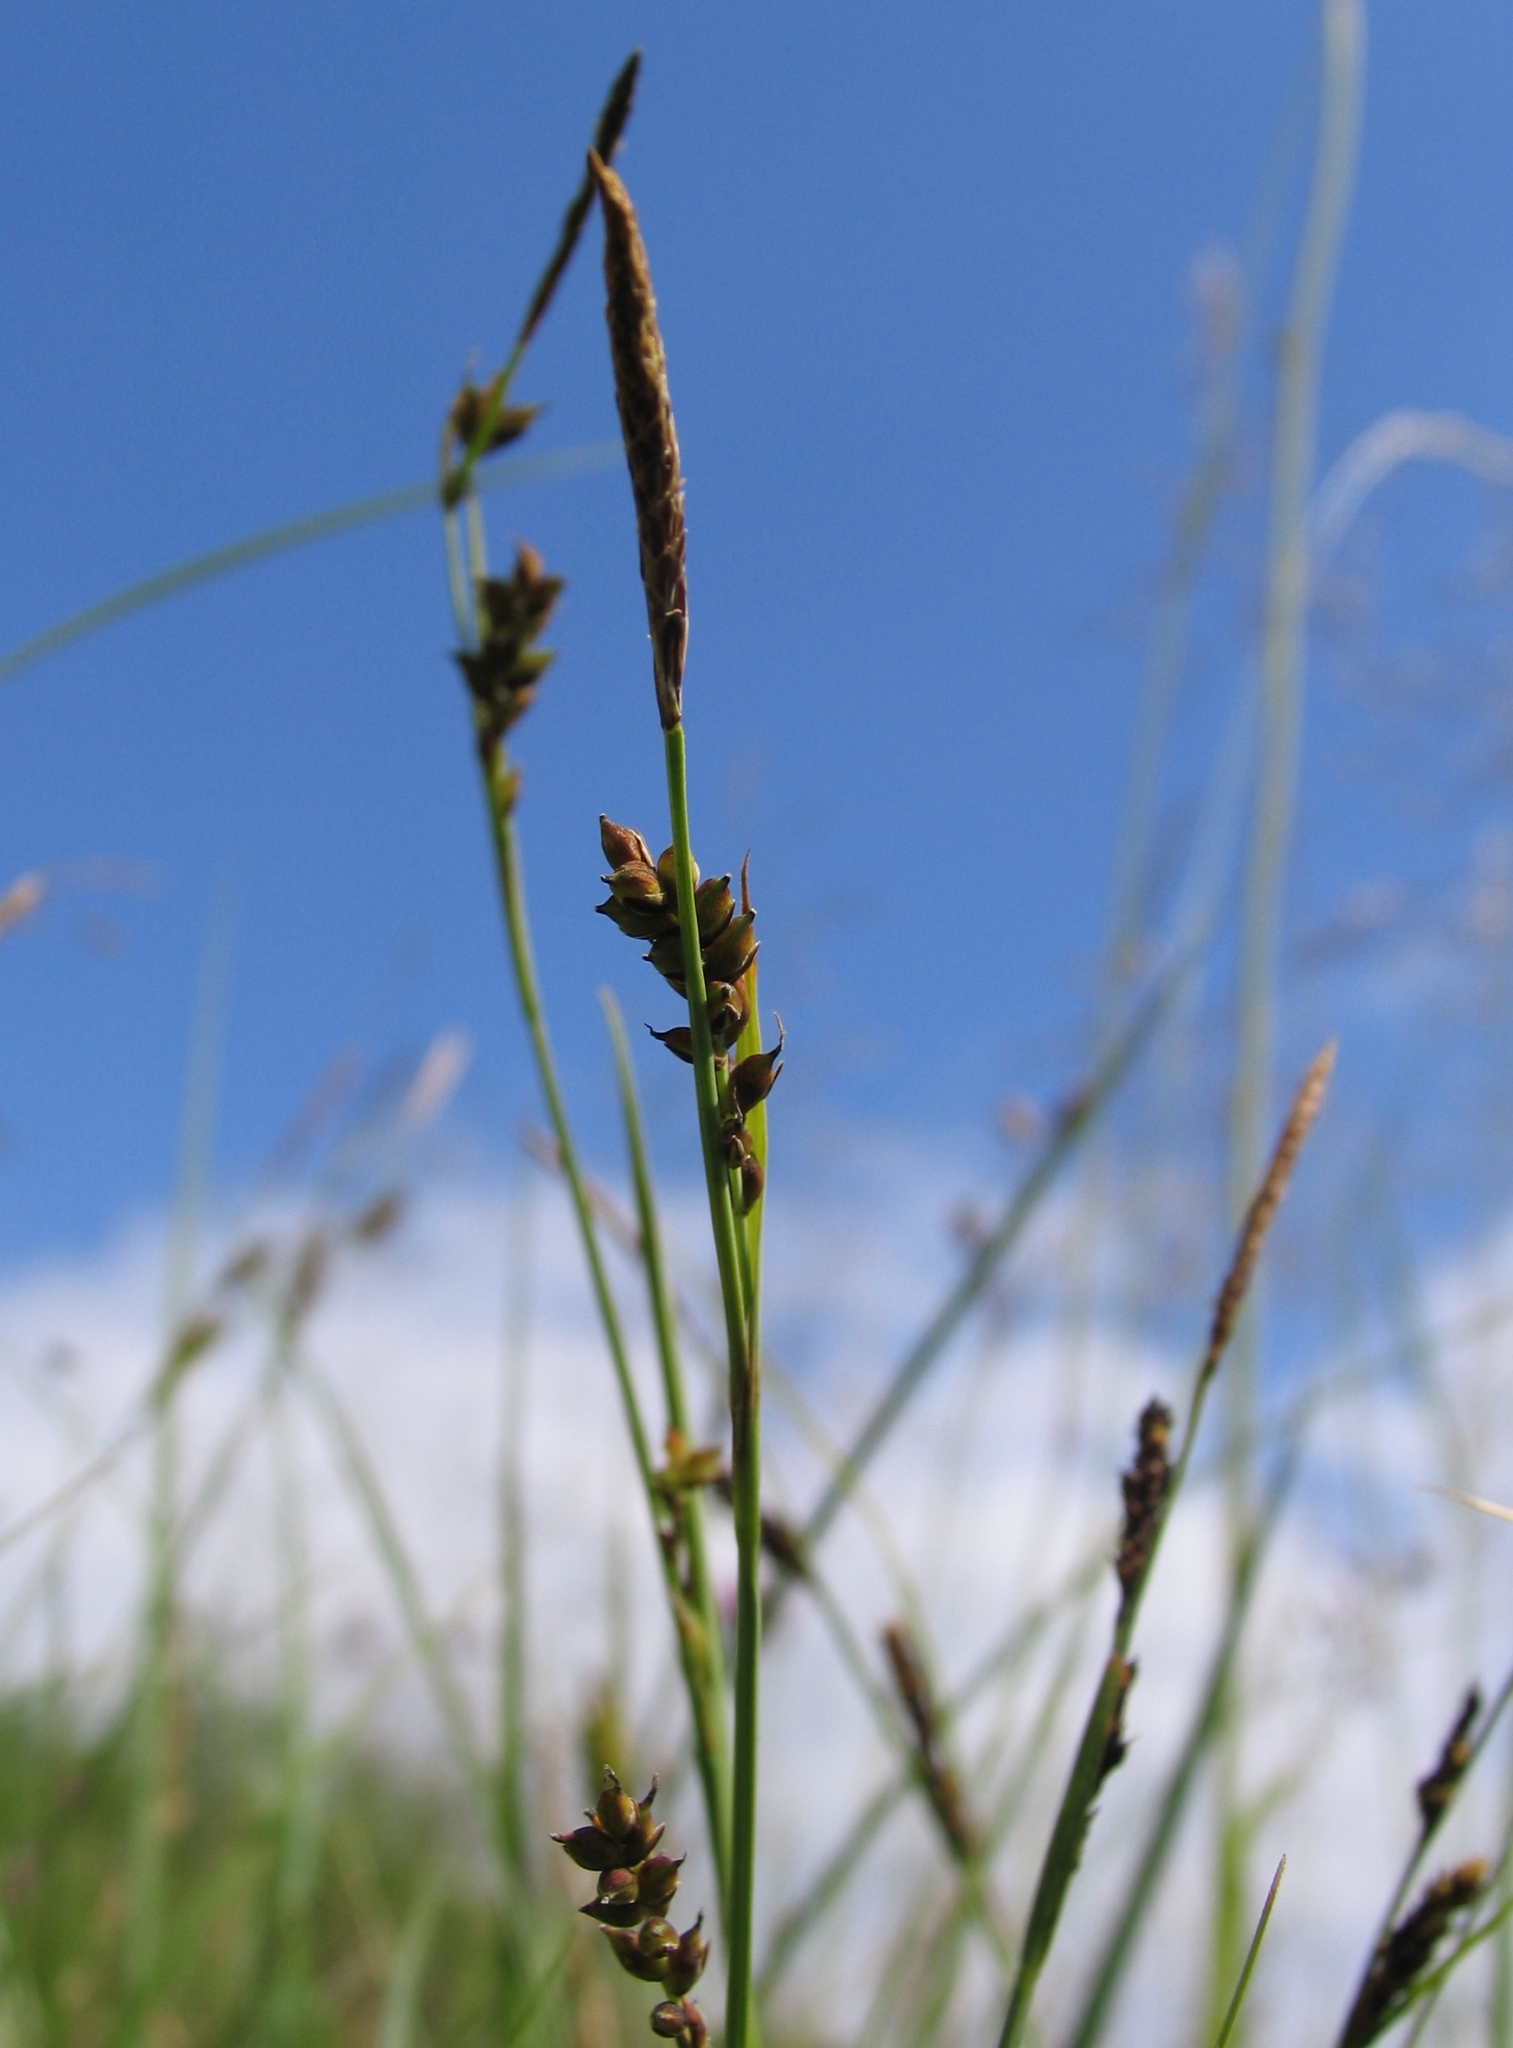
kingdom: Plantae
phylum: Tracheophyta
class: Liliopsida
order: Poales
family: Cyperaceae
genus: Carex
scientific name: Carex panicea
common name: Carnation sedge
